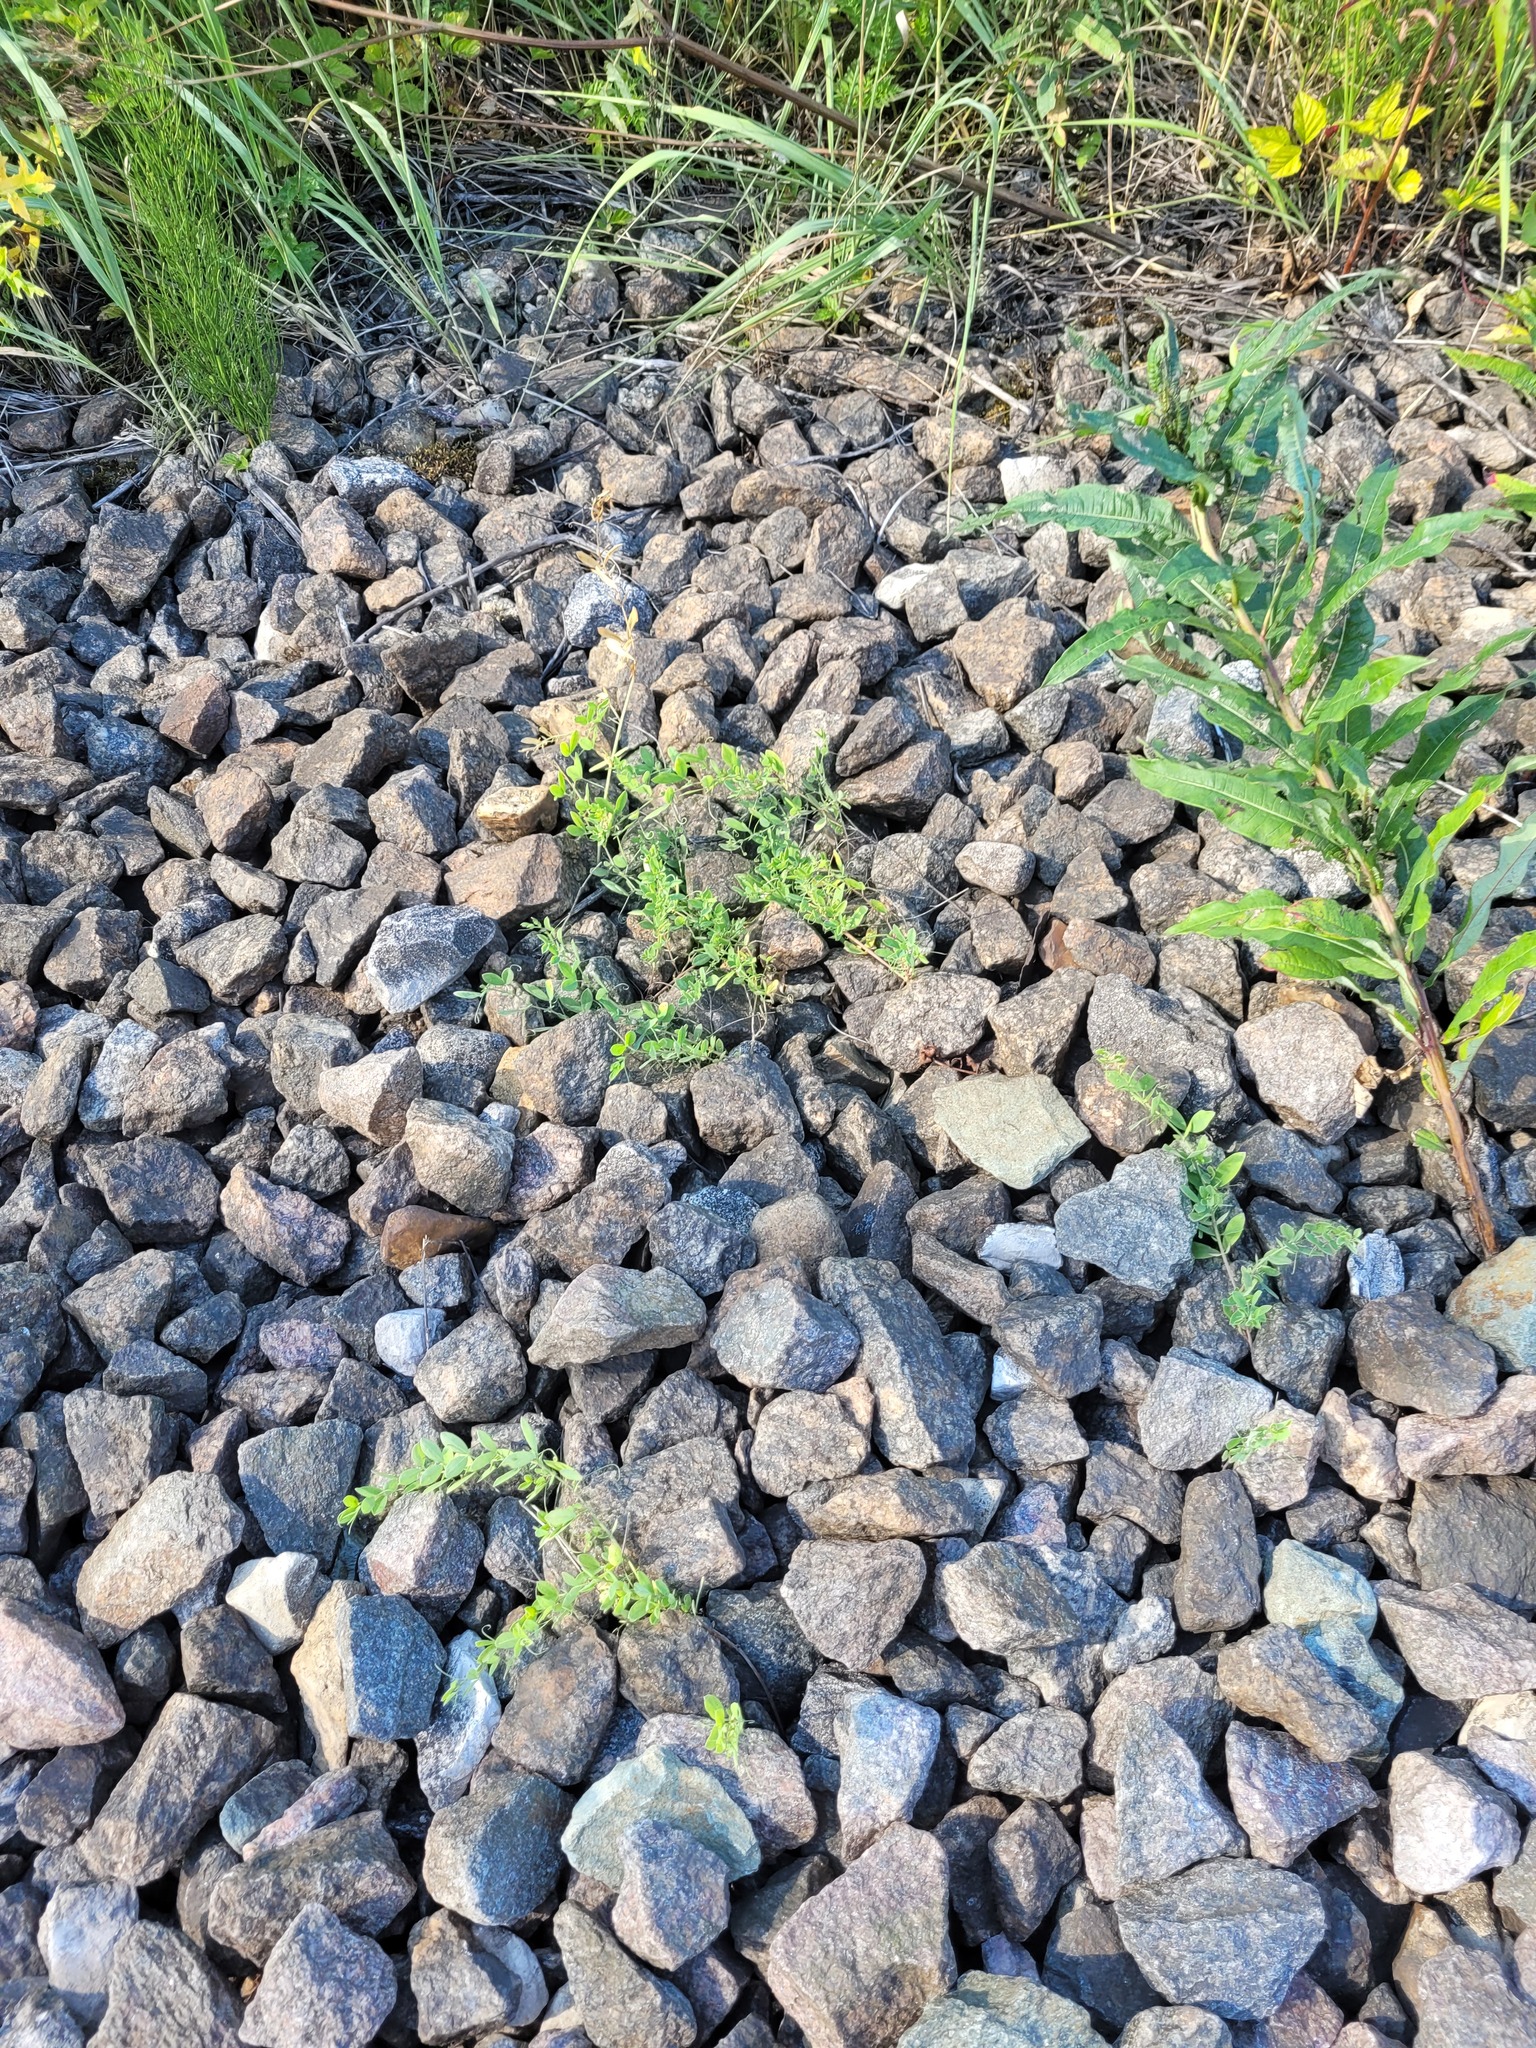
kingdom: Plantae
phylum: Tracheophyta
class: Magnoliopsida
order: Fabales
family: Fabaceae
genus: Lathyrus
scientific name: Lathyrus tuberosus
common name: Tuberous pea
